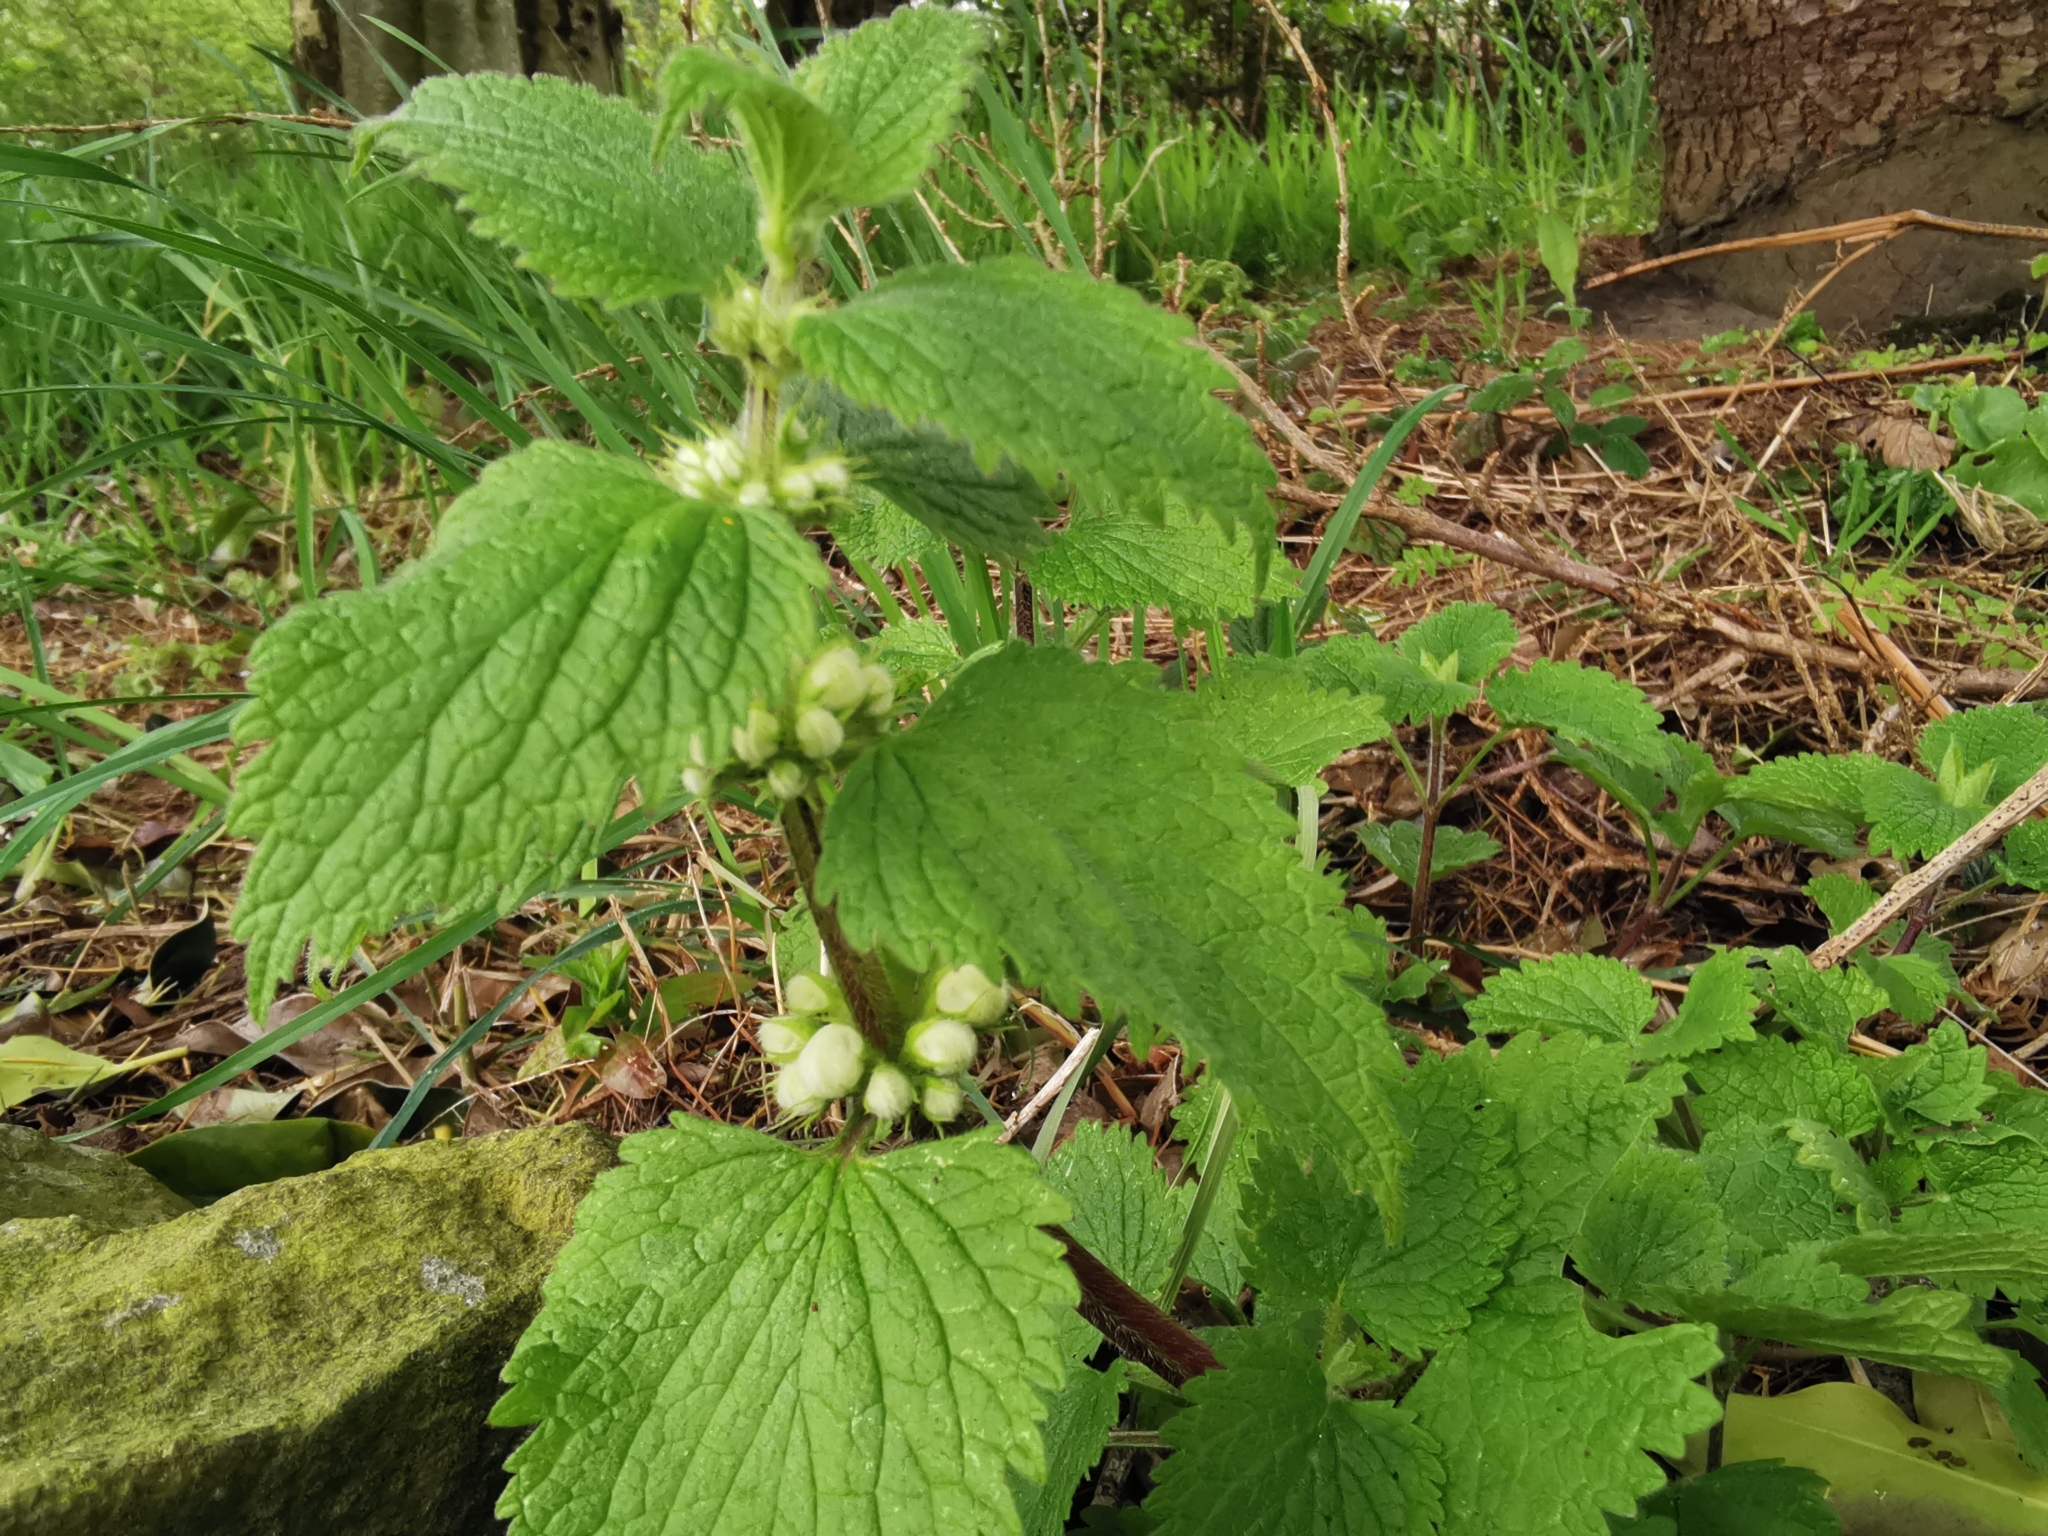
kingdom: Plantae
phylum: Tracheophyta
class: Magnoliopsida
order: Lamiales
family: Lamiaceae
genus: Lamium
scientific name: Lamium album
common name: White dead-nettle
